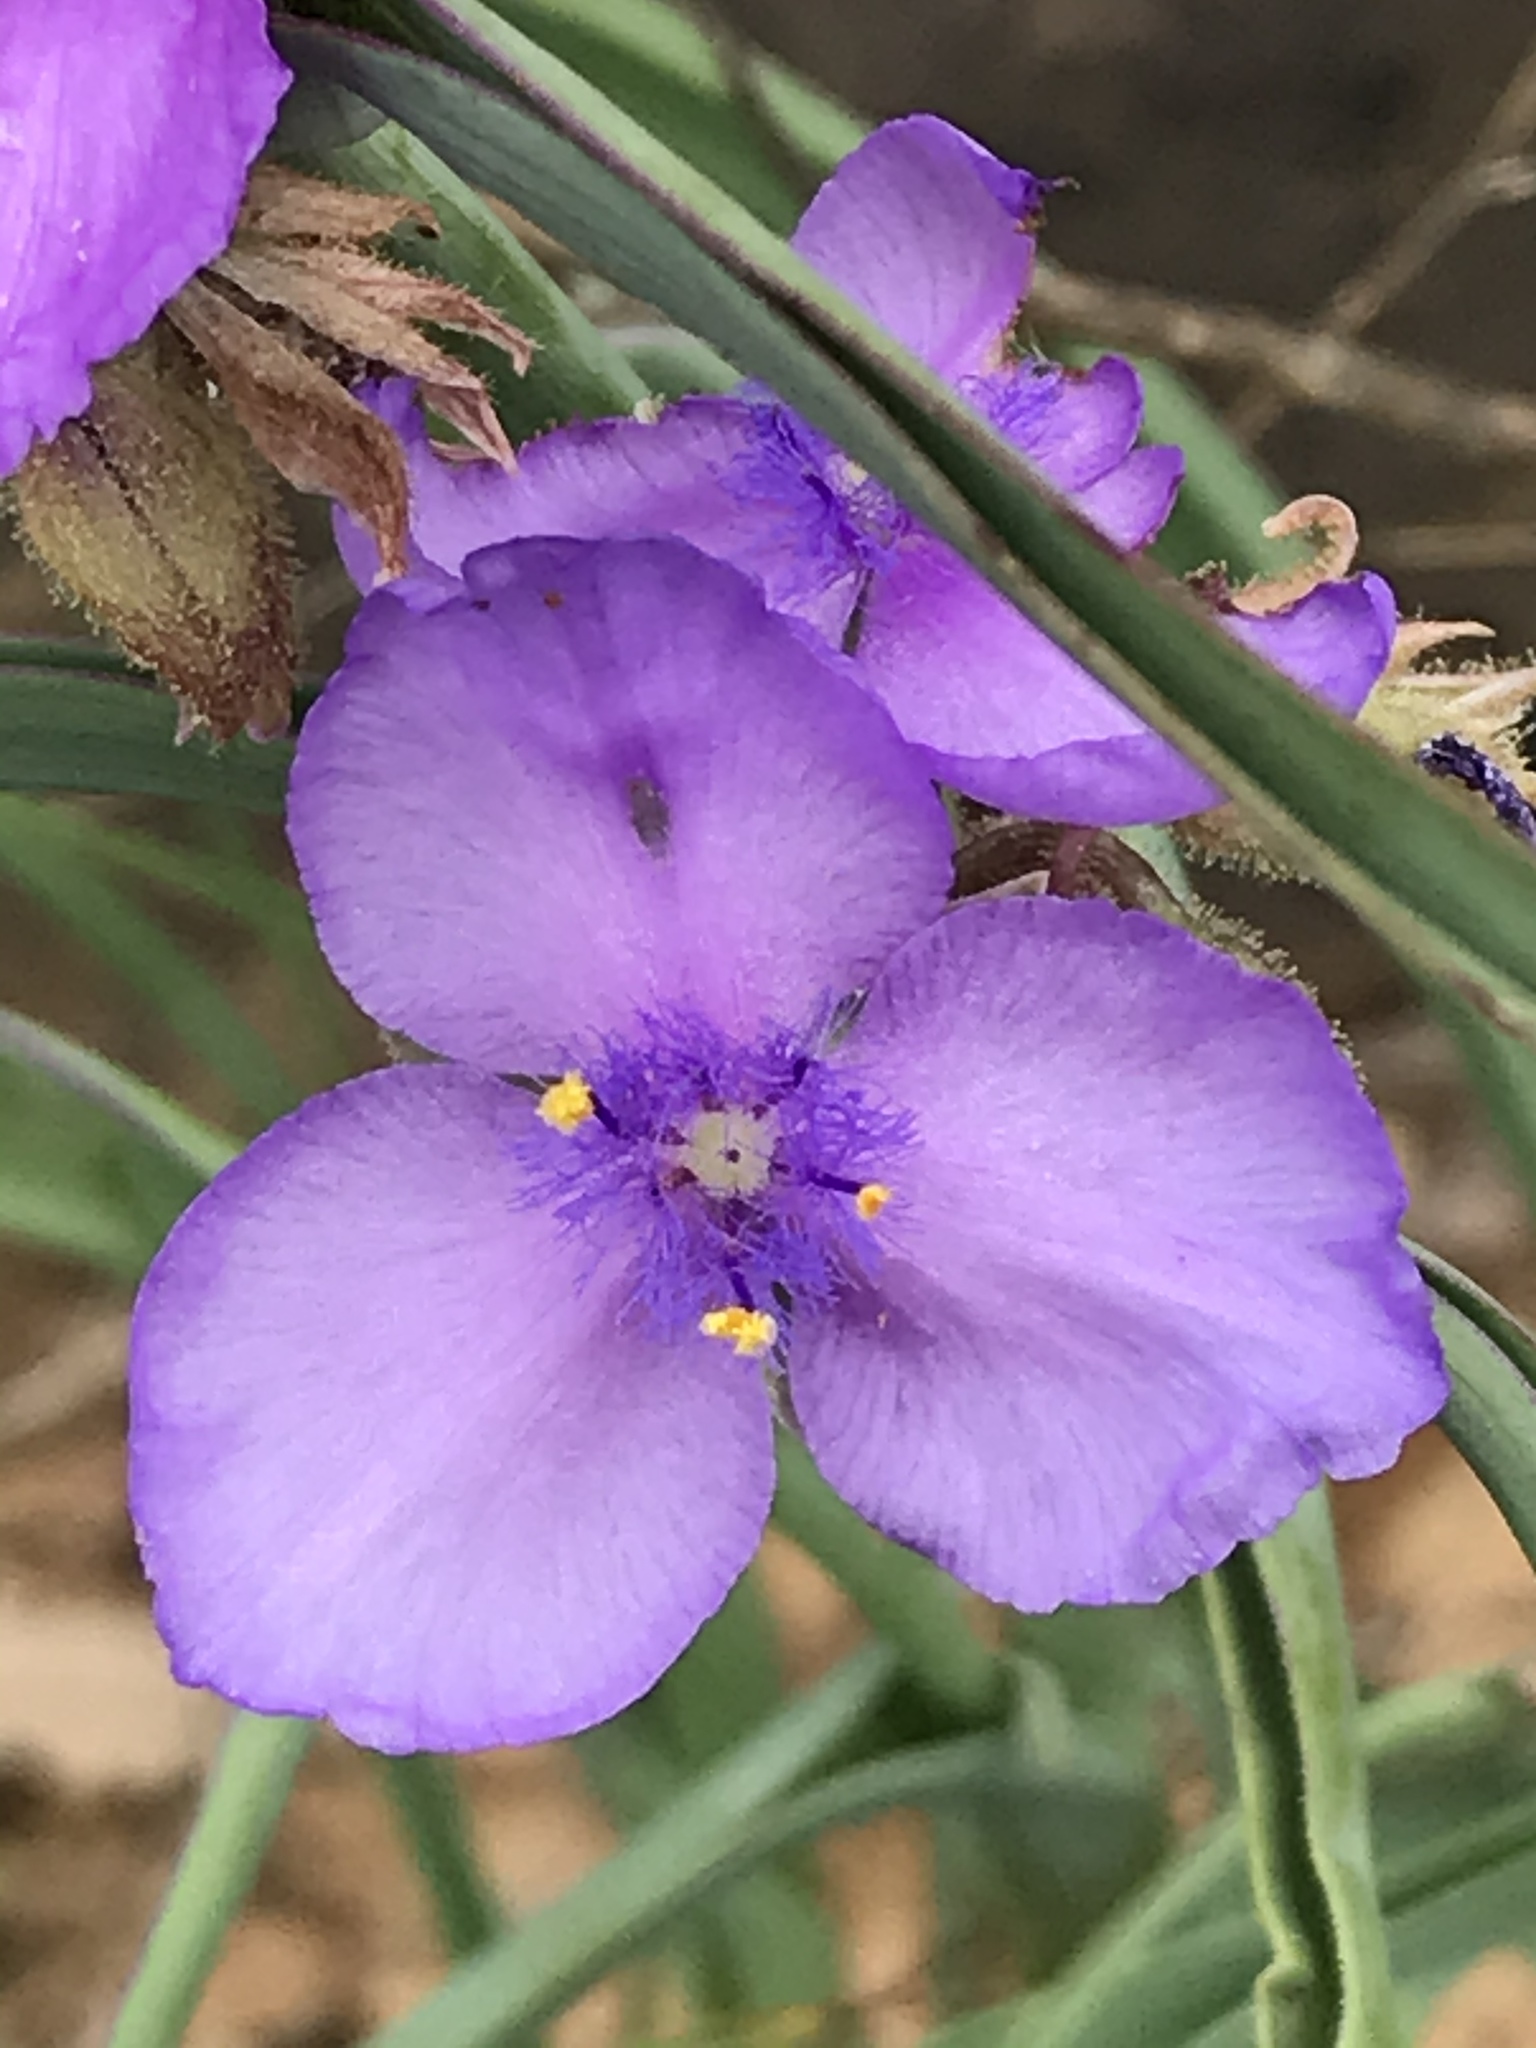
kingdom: Plantae
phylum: Tracheophyta
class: Liliopsida
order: Commelinales
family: Commelinaceae
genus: Tradescantia
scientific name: Tradescantia occidentalis
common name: Prairie spiderwort
